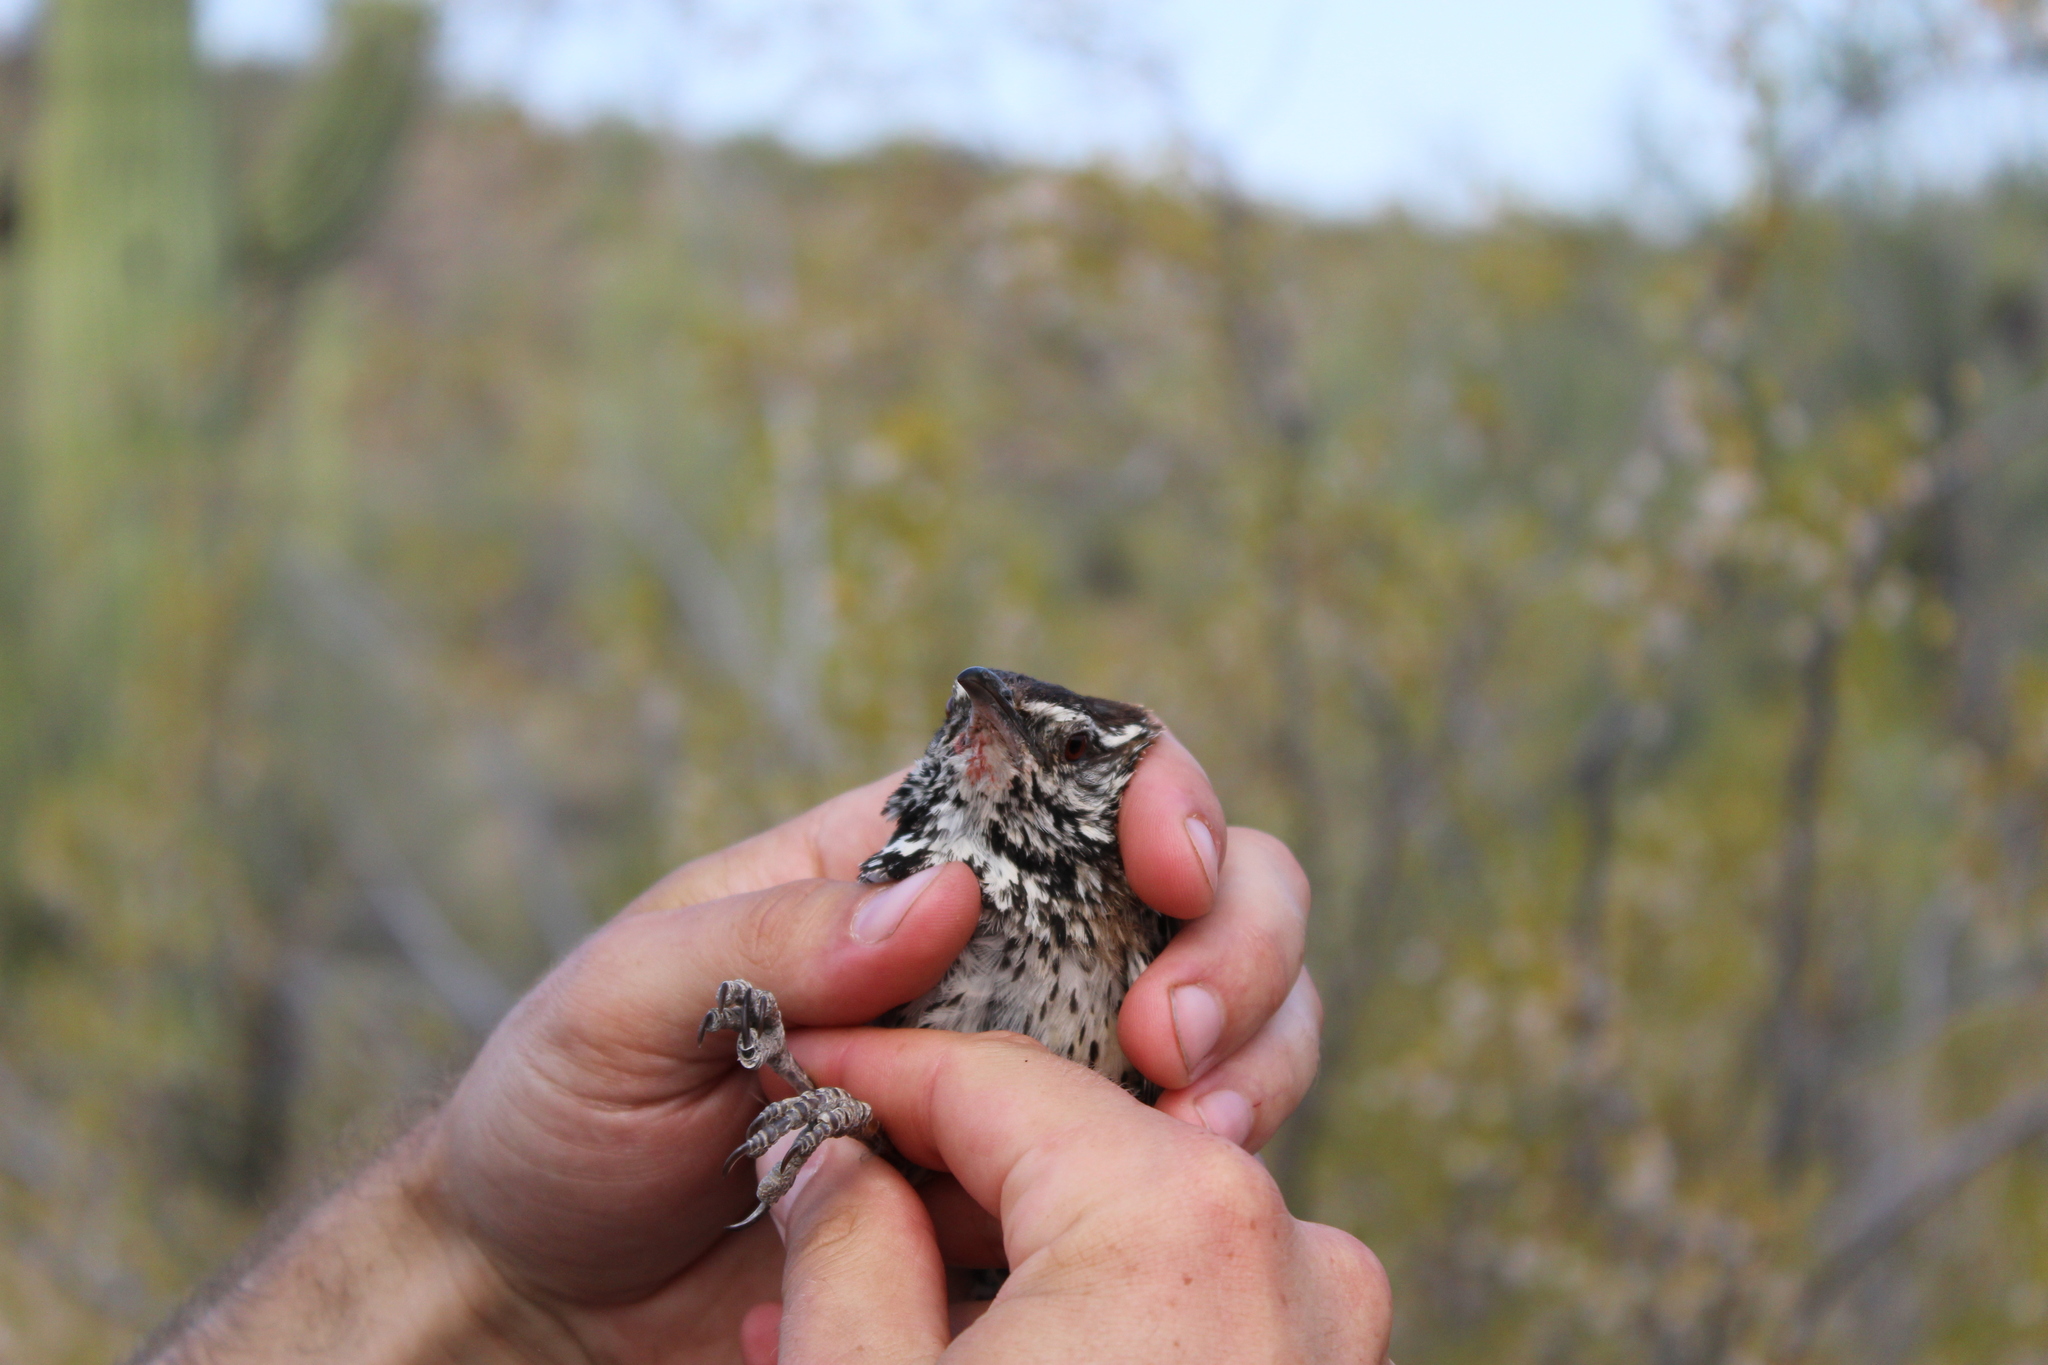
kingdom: Animalia
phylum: Chordata
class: Aves
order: Passeriformes
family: Troglodytidae
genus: Campylorhynchus
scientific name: Campylorhynchus brunneicapillus
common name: Cactus wren
